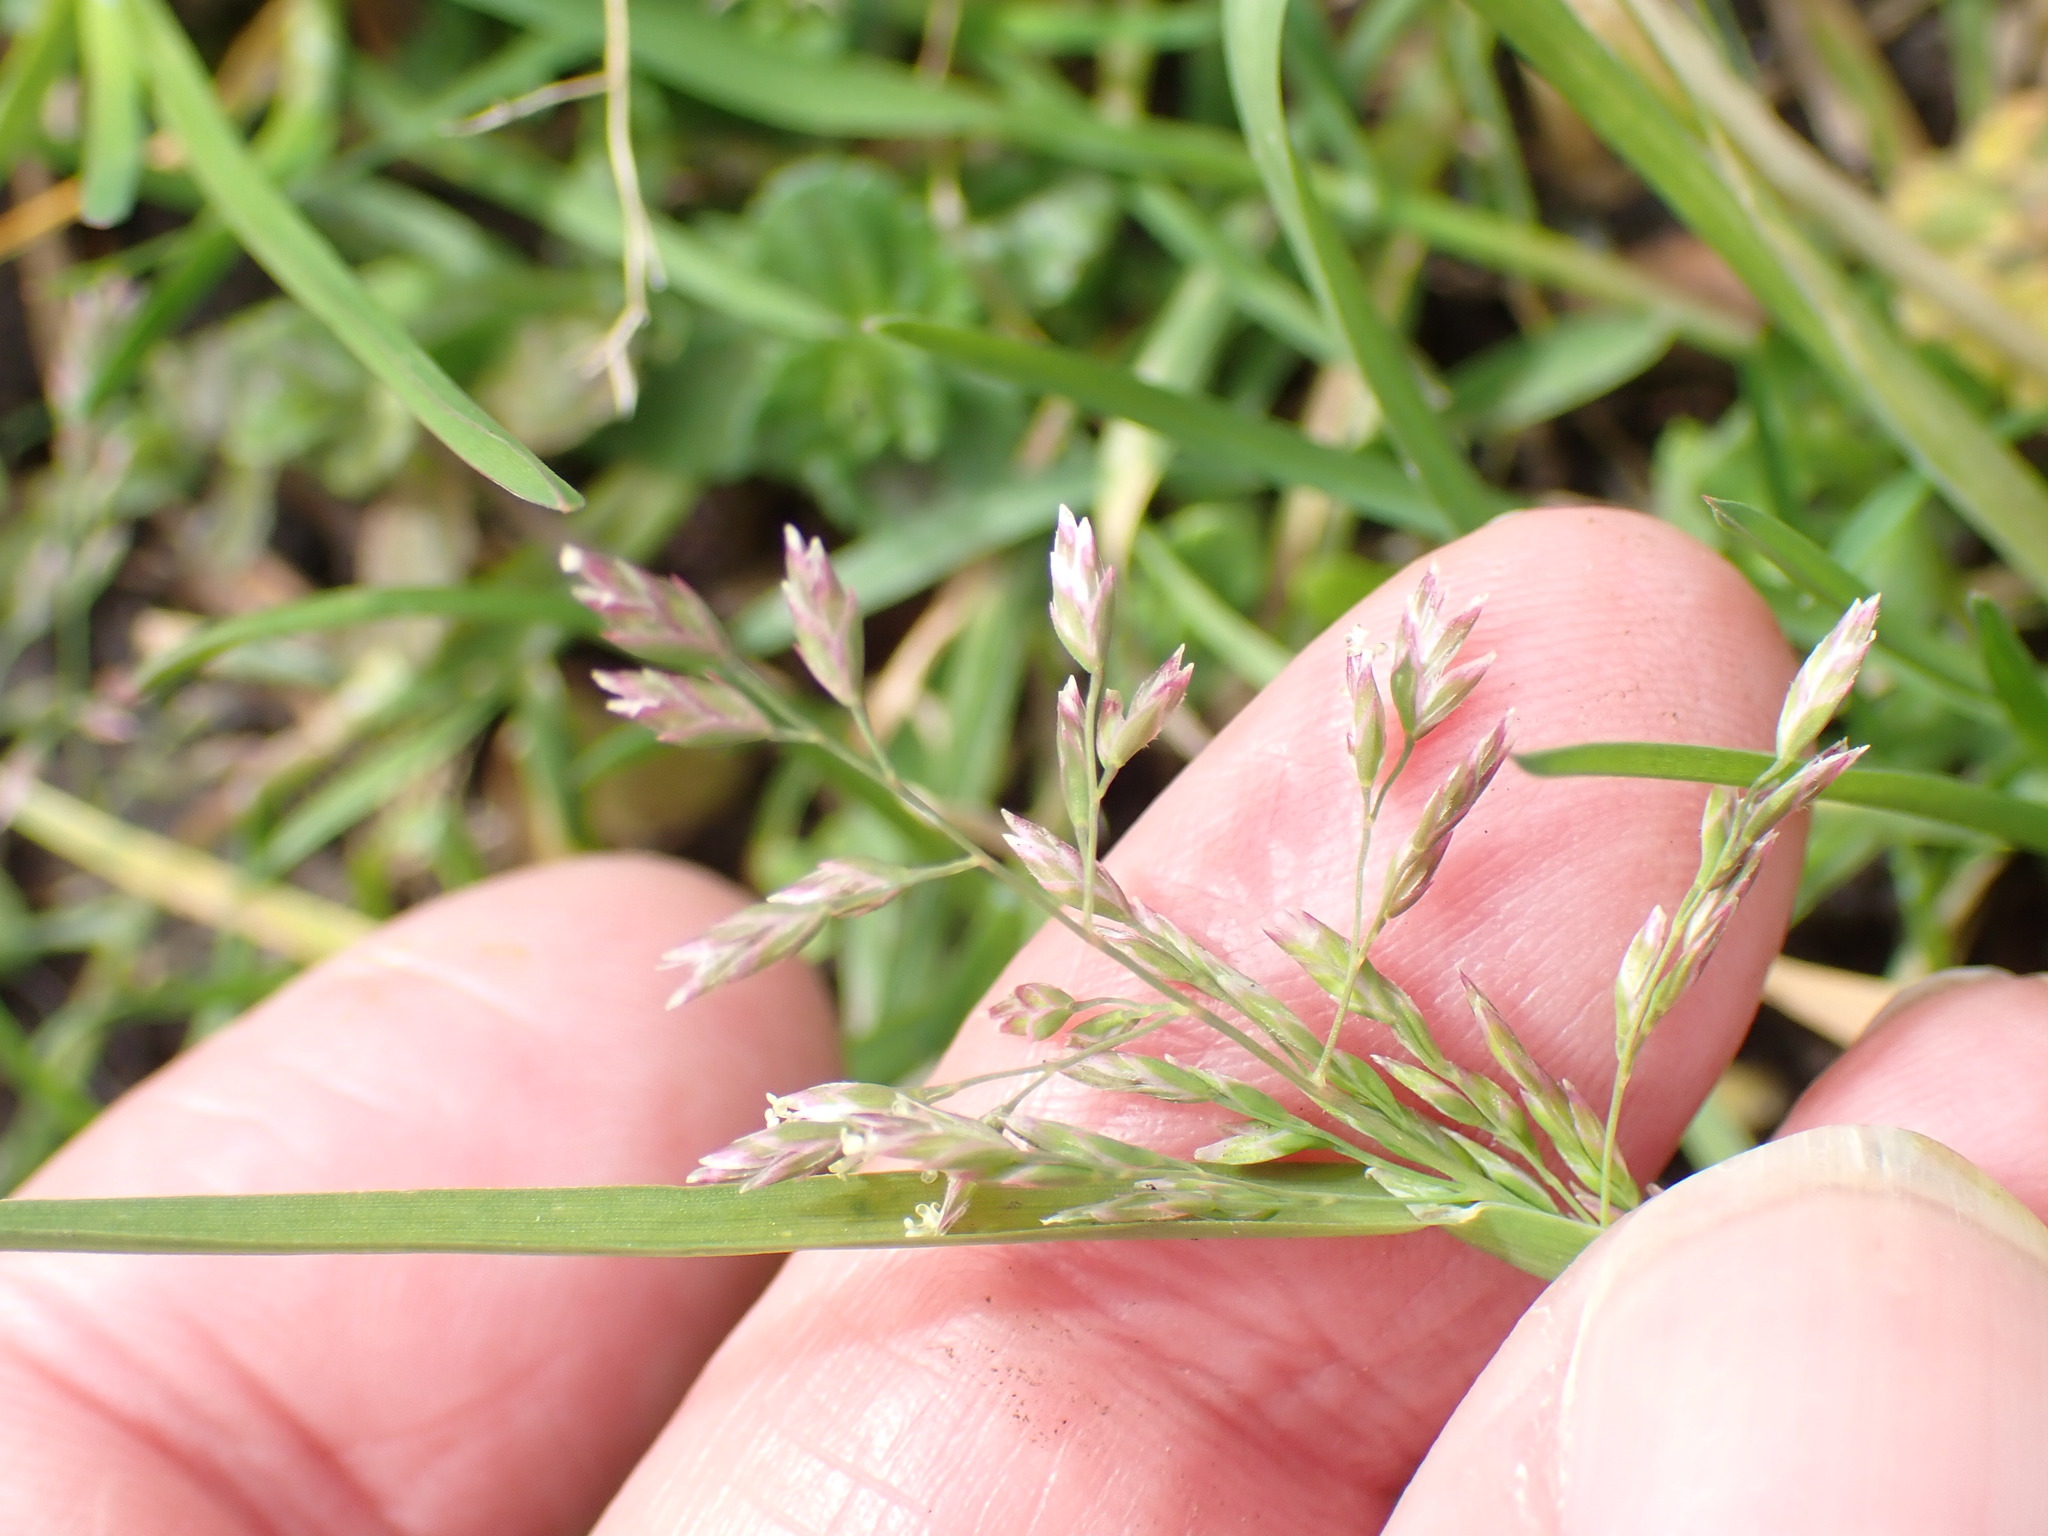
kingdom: Plantae
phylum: Tracheophyta
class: Liliopsida
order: Poales
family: Poaceae
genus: Poa
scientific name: Poa annua
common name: Annual bluegrass
